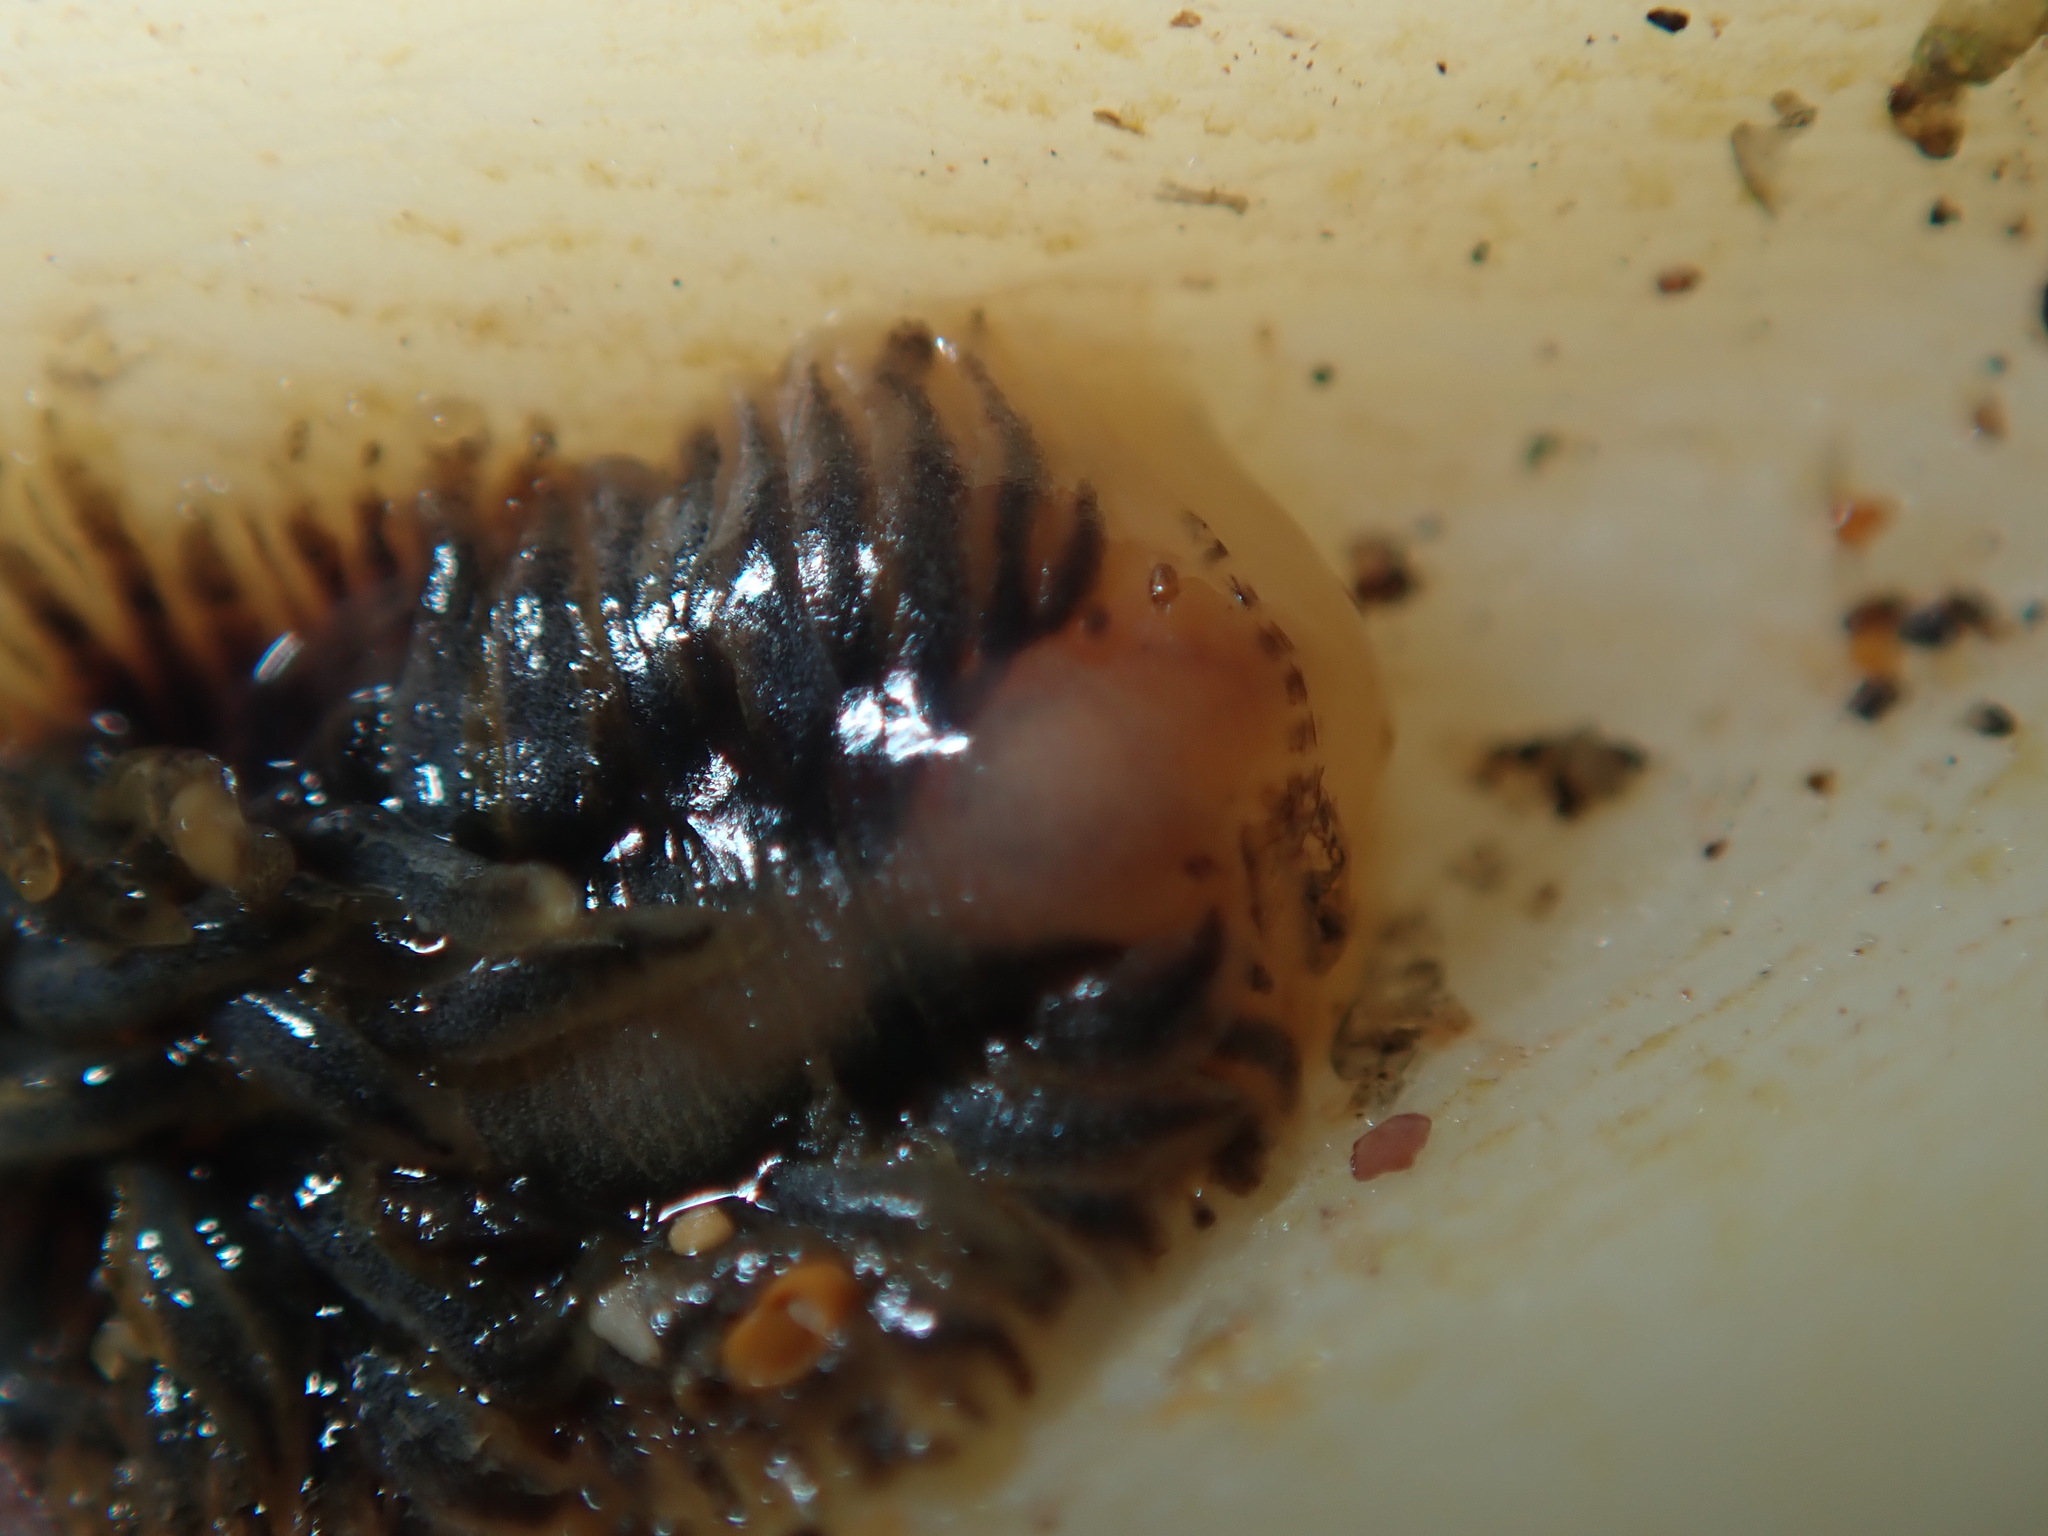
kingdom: Animalia
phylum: Mollusca
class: Gastropoda
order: Nudibranchia
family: Fionidae
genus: Fiona
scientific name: Fiona pinnata
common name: Fiona
